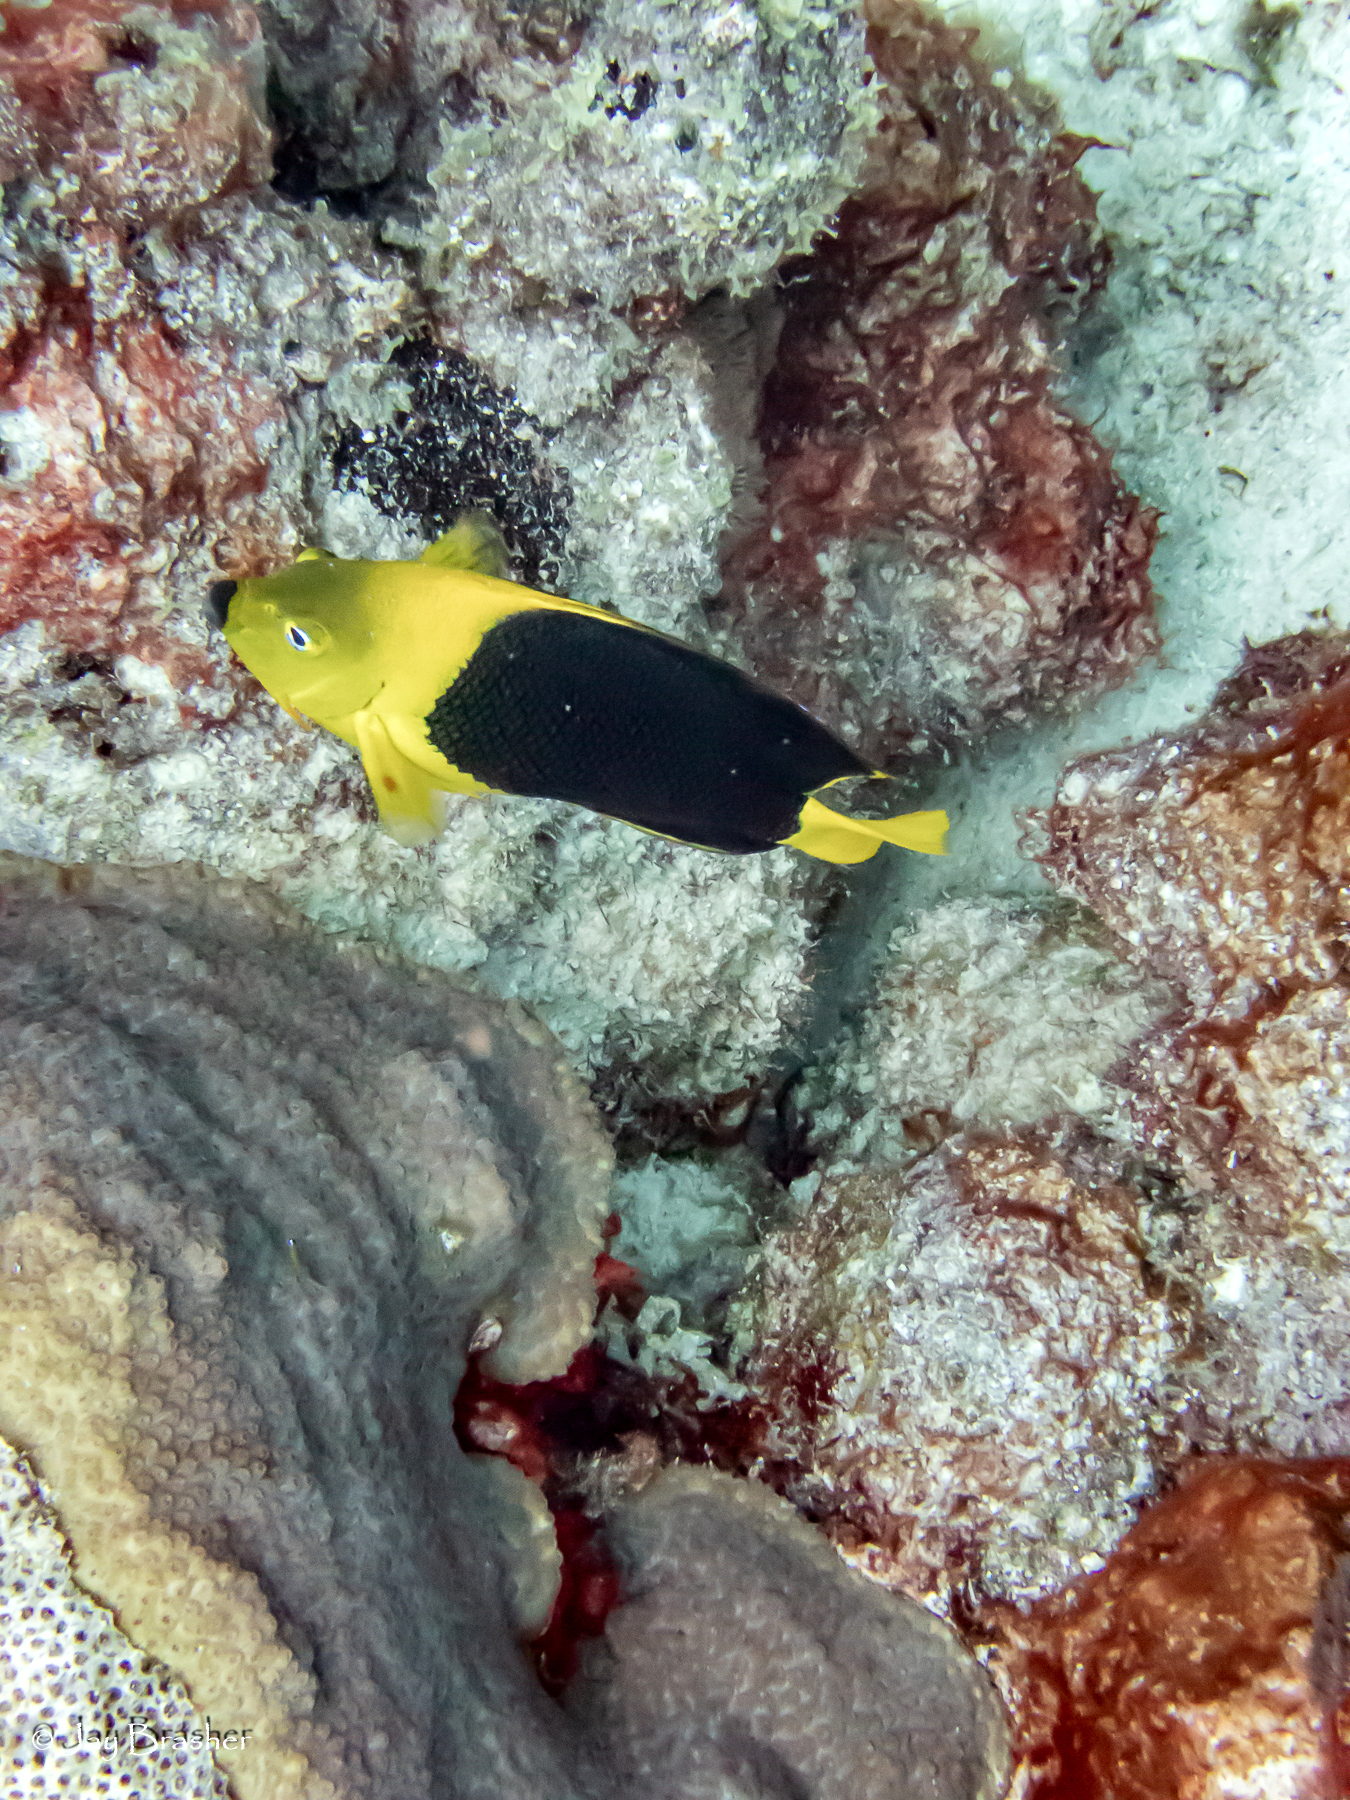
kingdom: Animalia
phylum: Chordata
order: Perciformes
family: Pomacanthidae
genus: Holacanthus
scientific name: Holacanthus tricolor
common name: Rock beauty
